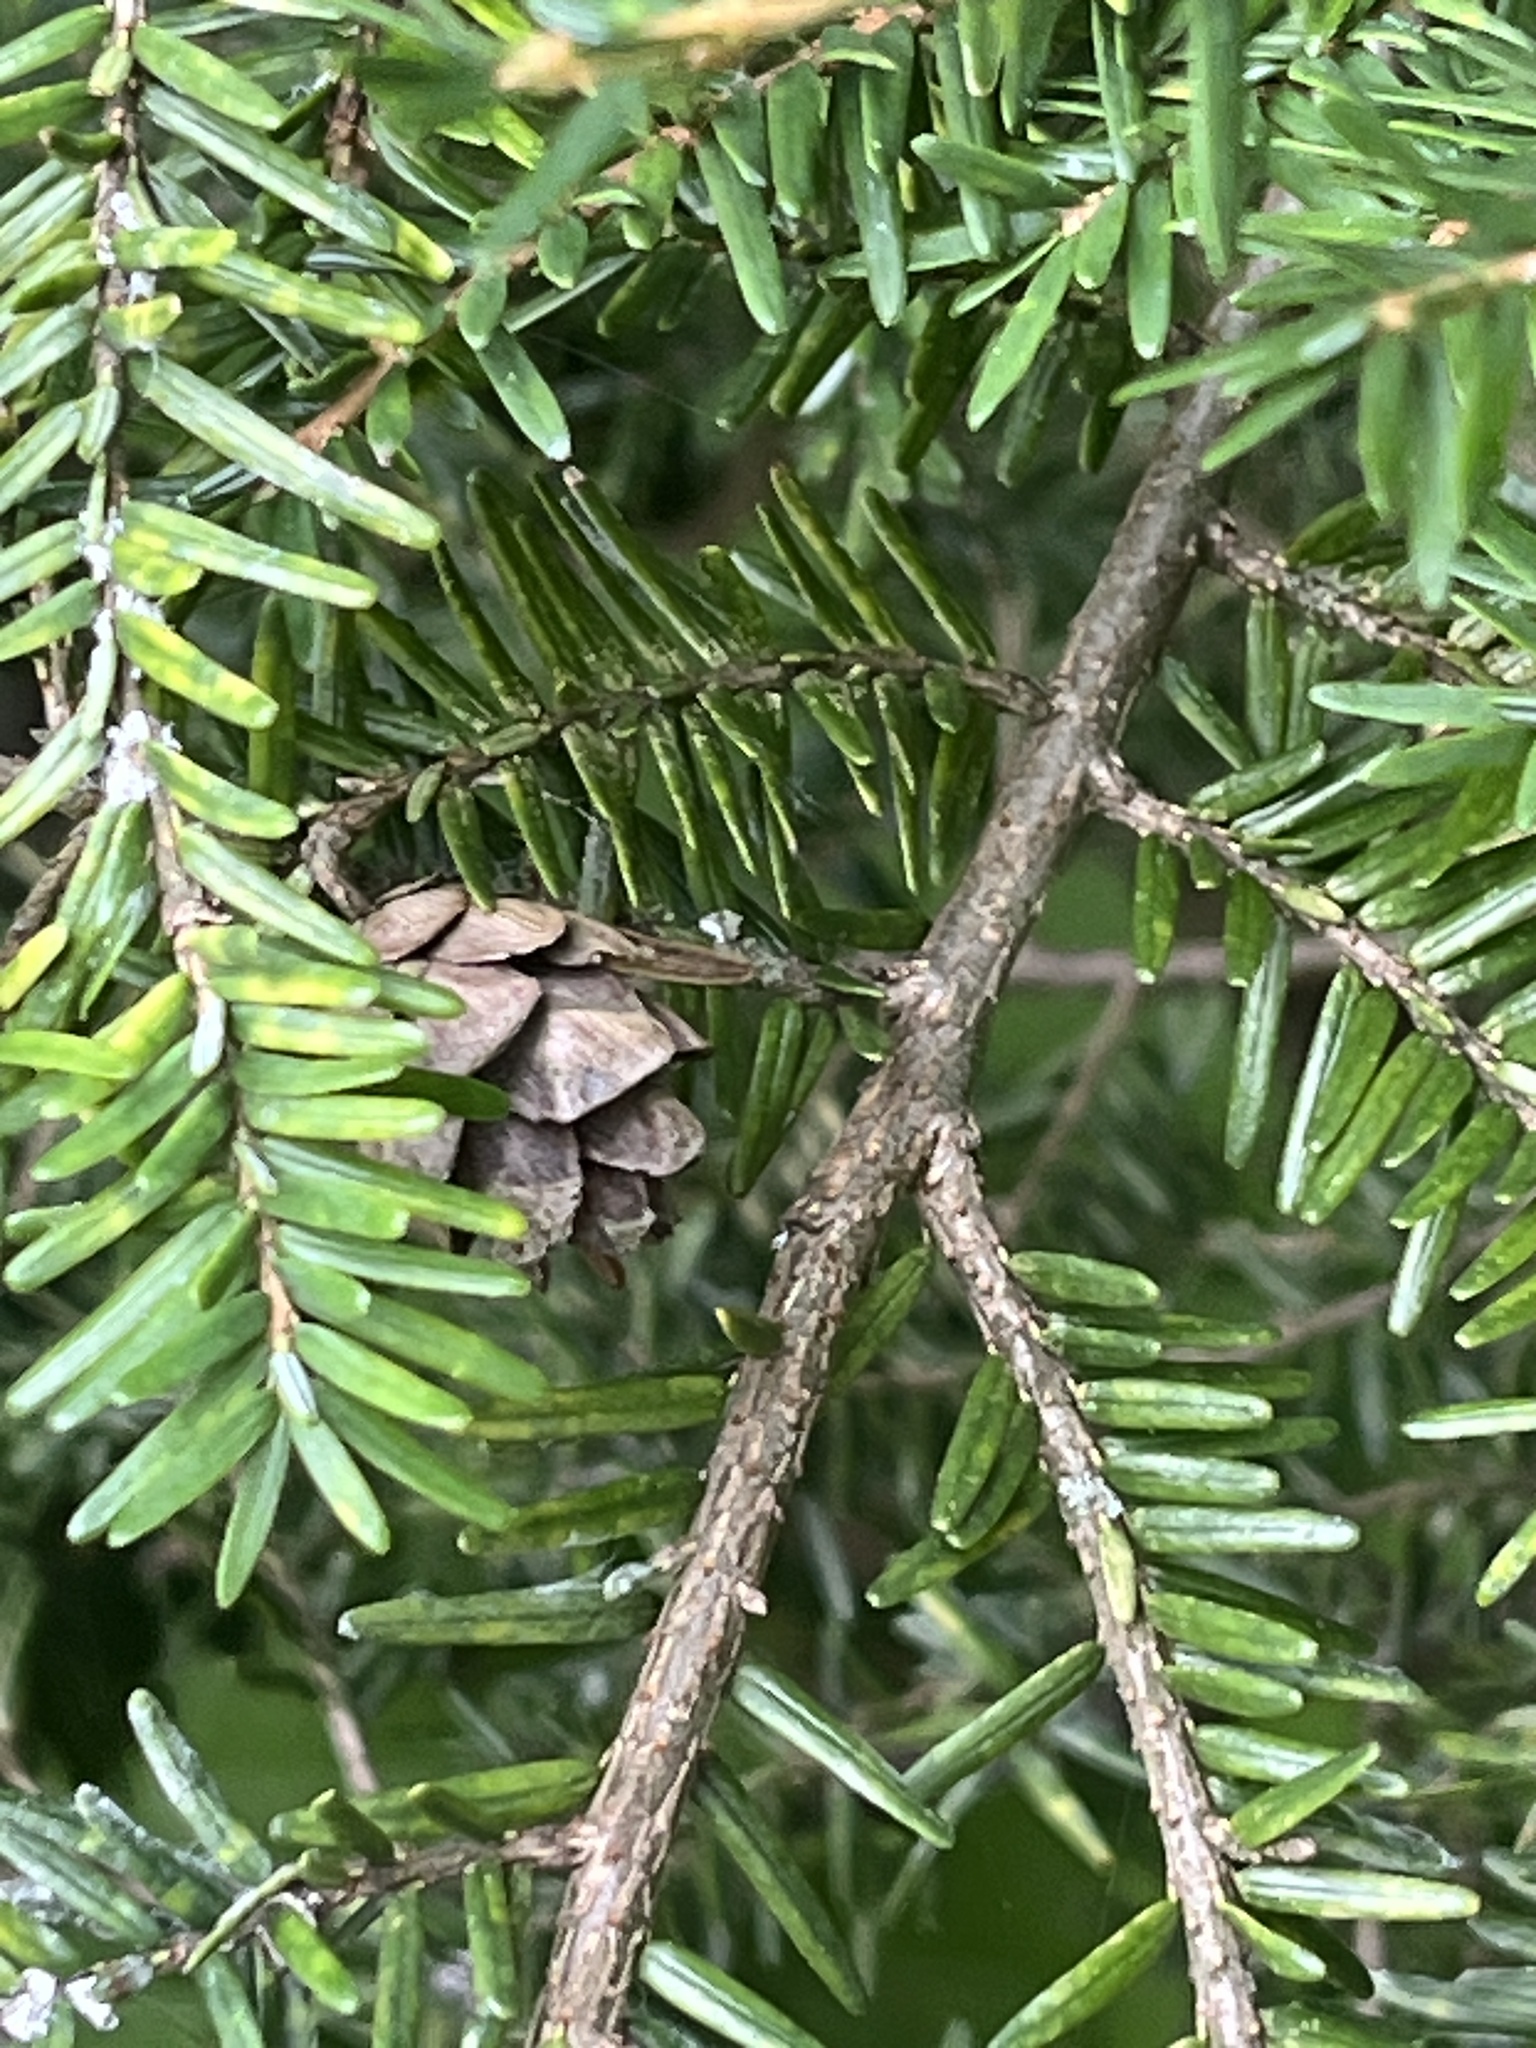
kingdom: Plantae
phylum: Tracheophyta
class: Pinopsida
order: Pinales
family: Pinaceae
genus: Tsuga
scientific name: Tsuga canadensis
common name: Eastern hemlock
